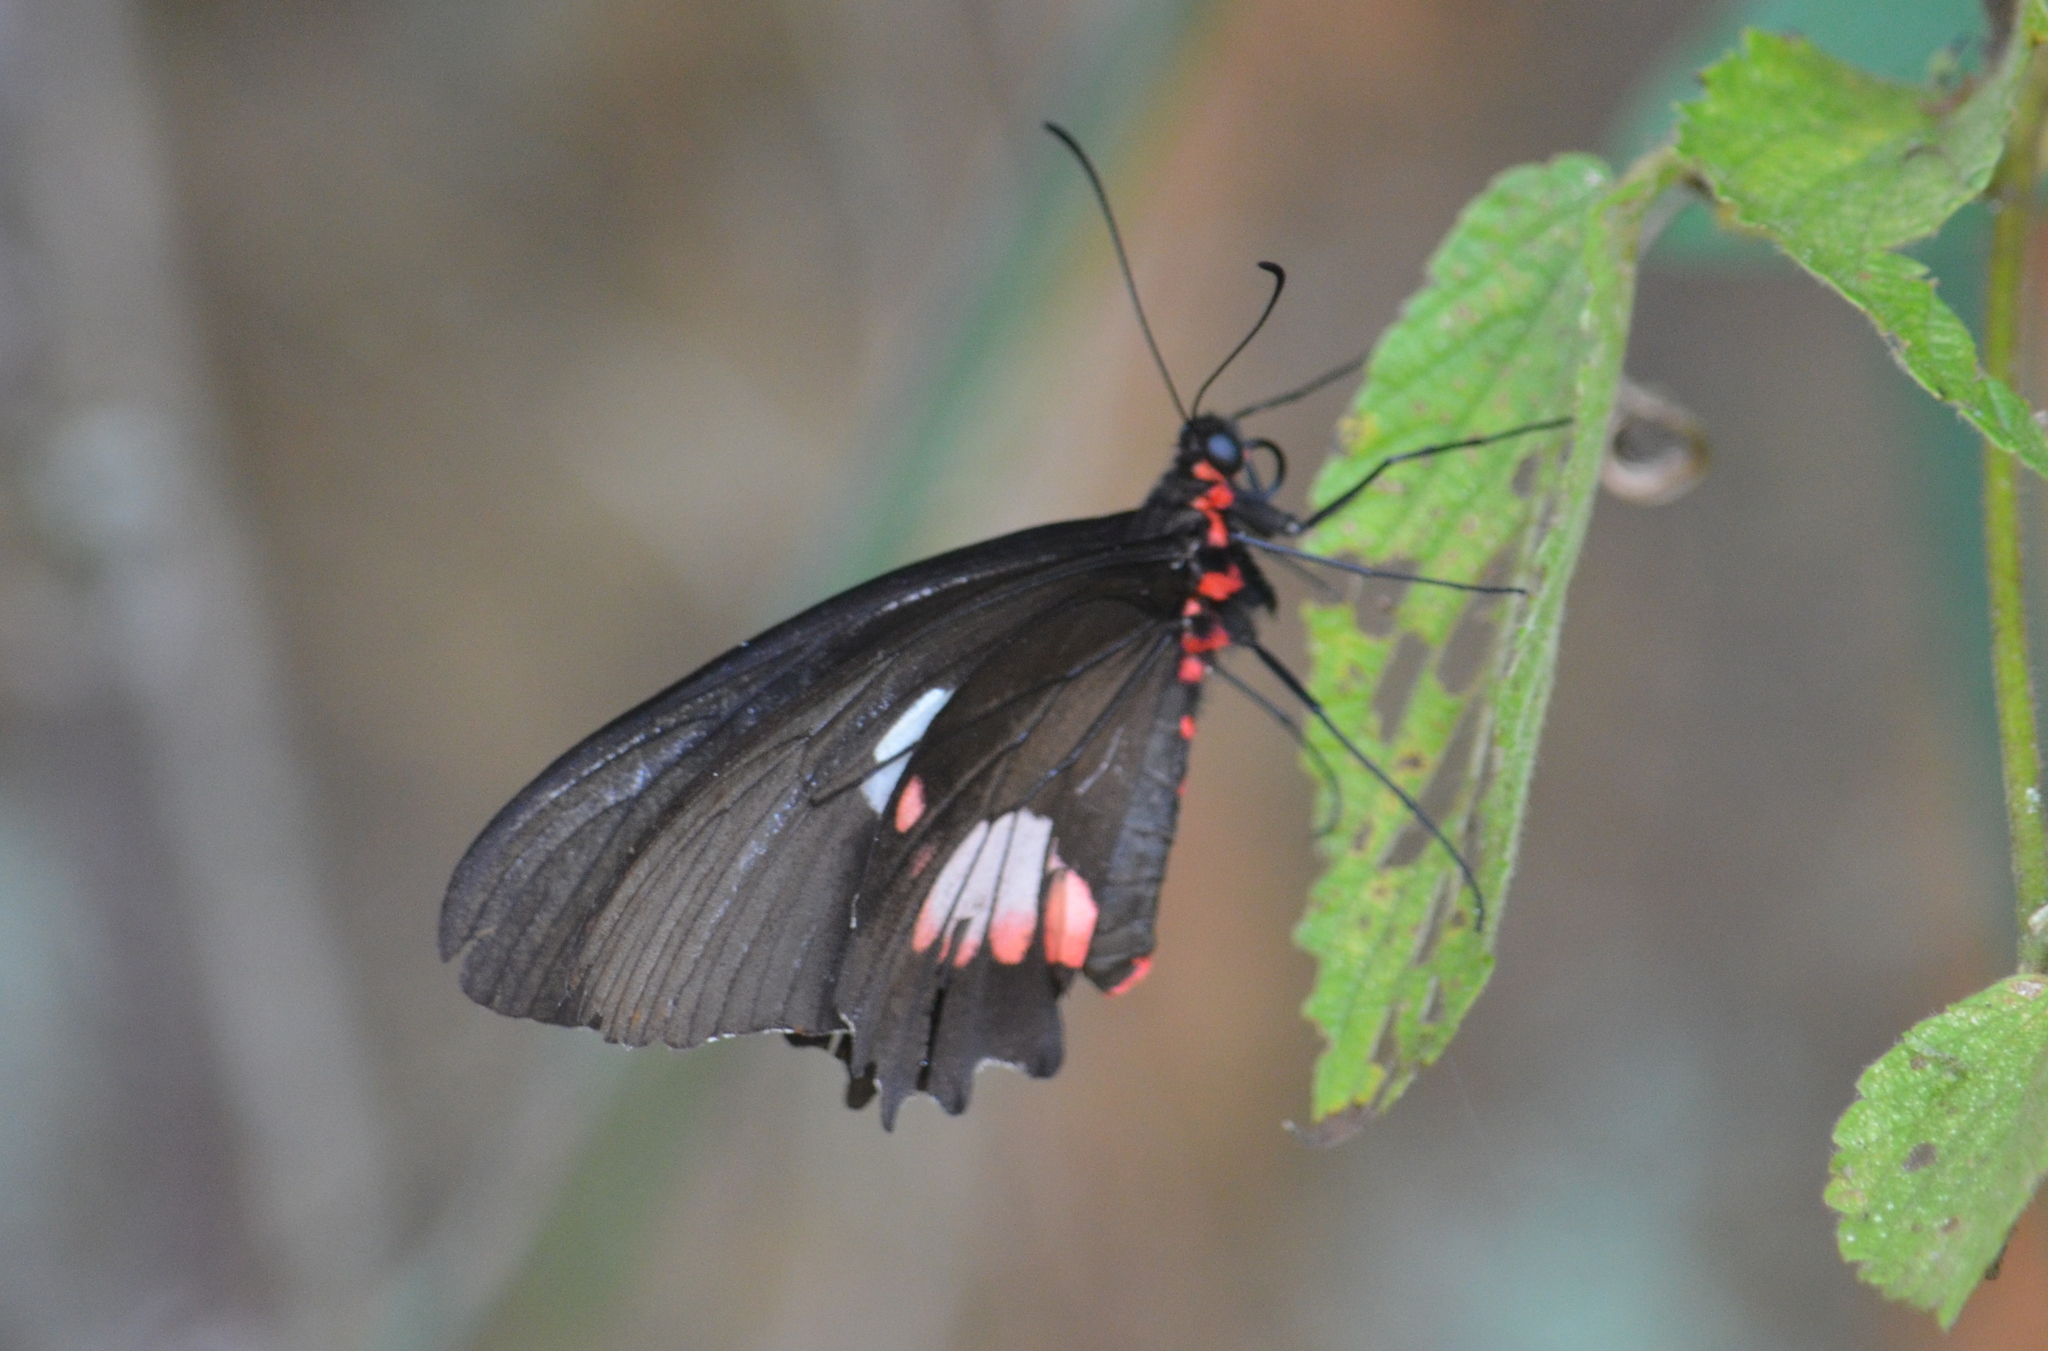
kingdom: Animalia
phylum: Arthropoda
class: Insecta
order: Lepidoptera
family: Papilionidae
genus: Parides
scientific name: Parides anchises
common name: Cattle heart
